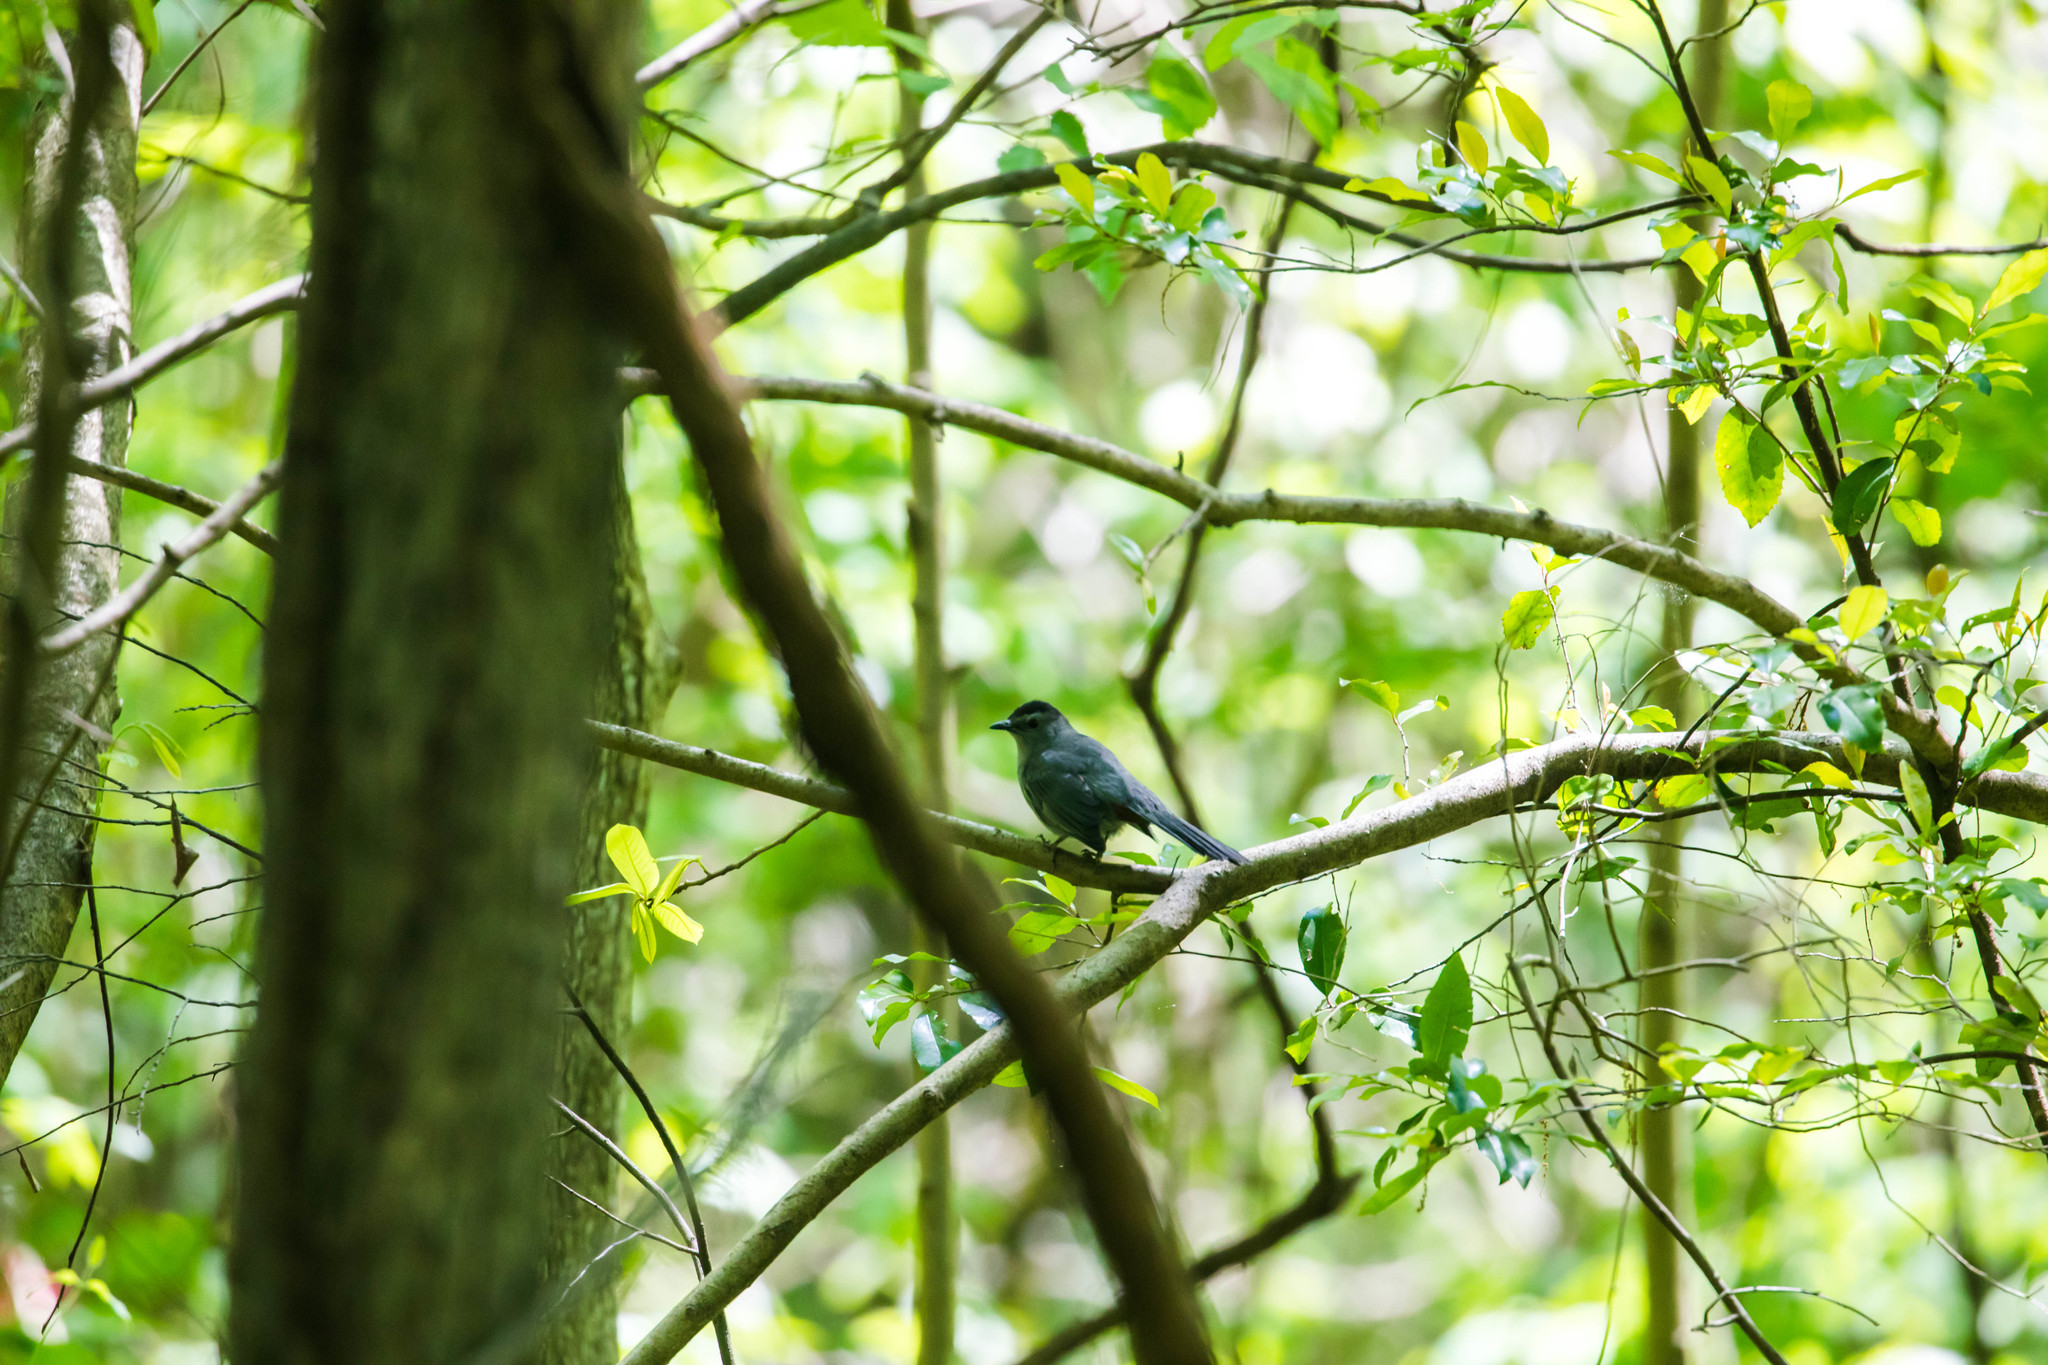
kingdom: Animalia
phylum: Chordata
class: Aves
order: Passeriformes
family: Mimidae
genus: Dumetella
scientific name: Dumetella carolinensis
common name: Gray catbird
